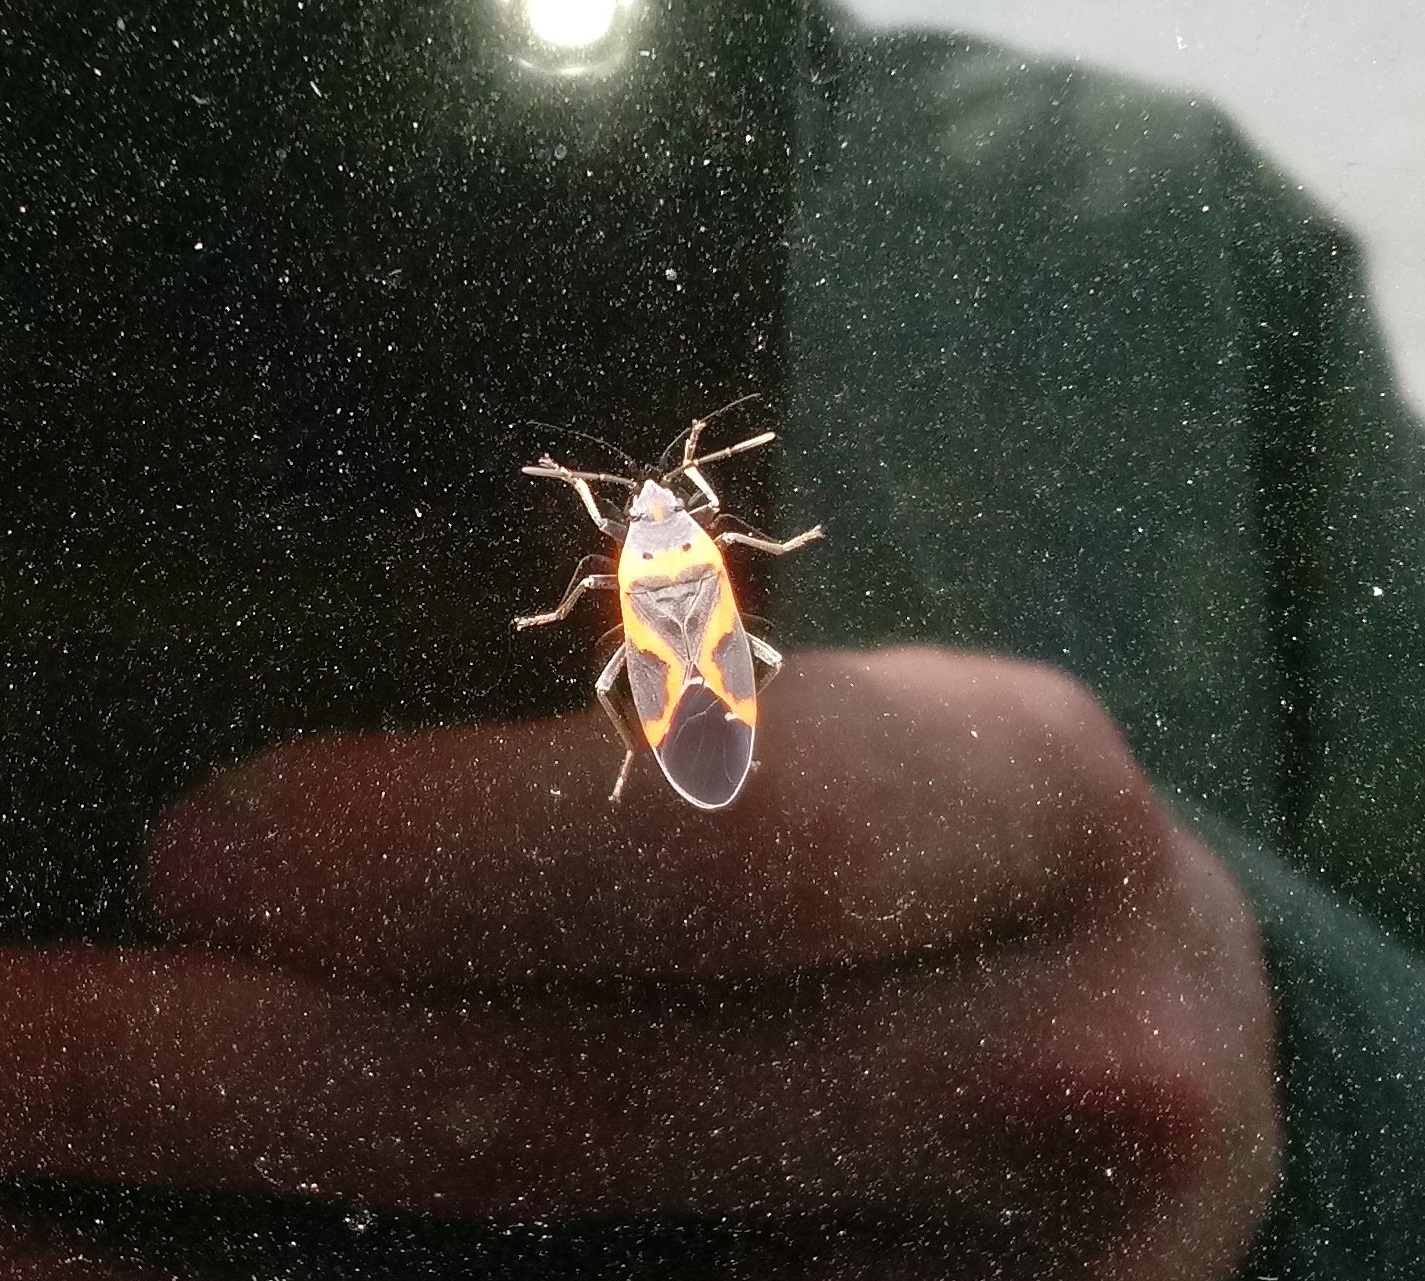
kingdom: Animalia
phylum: Arthropoda
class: Insecta
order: Hemiptera
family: Lygaeidae
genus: Lygaeus
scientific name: Lygaeus kalmii
